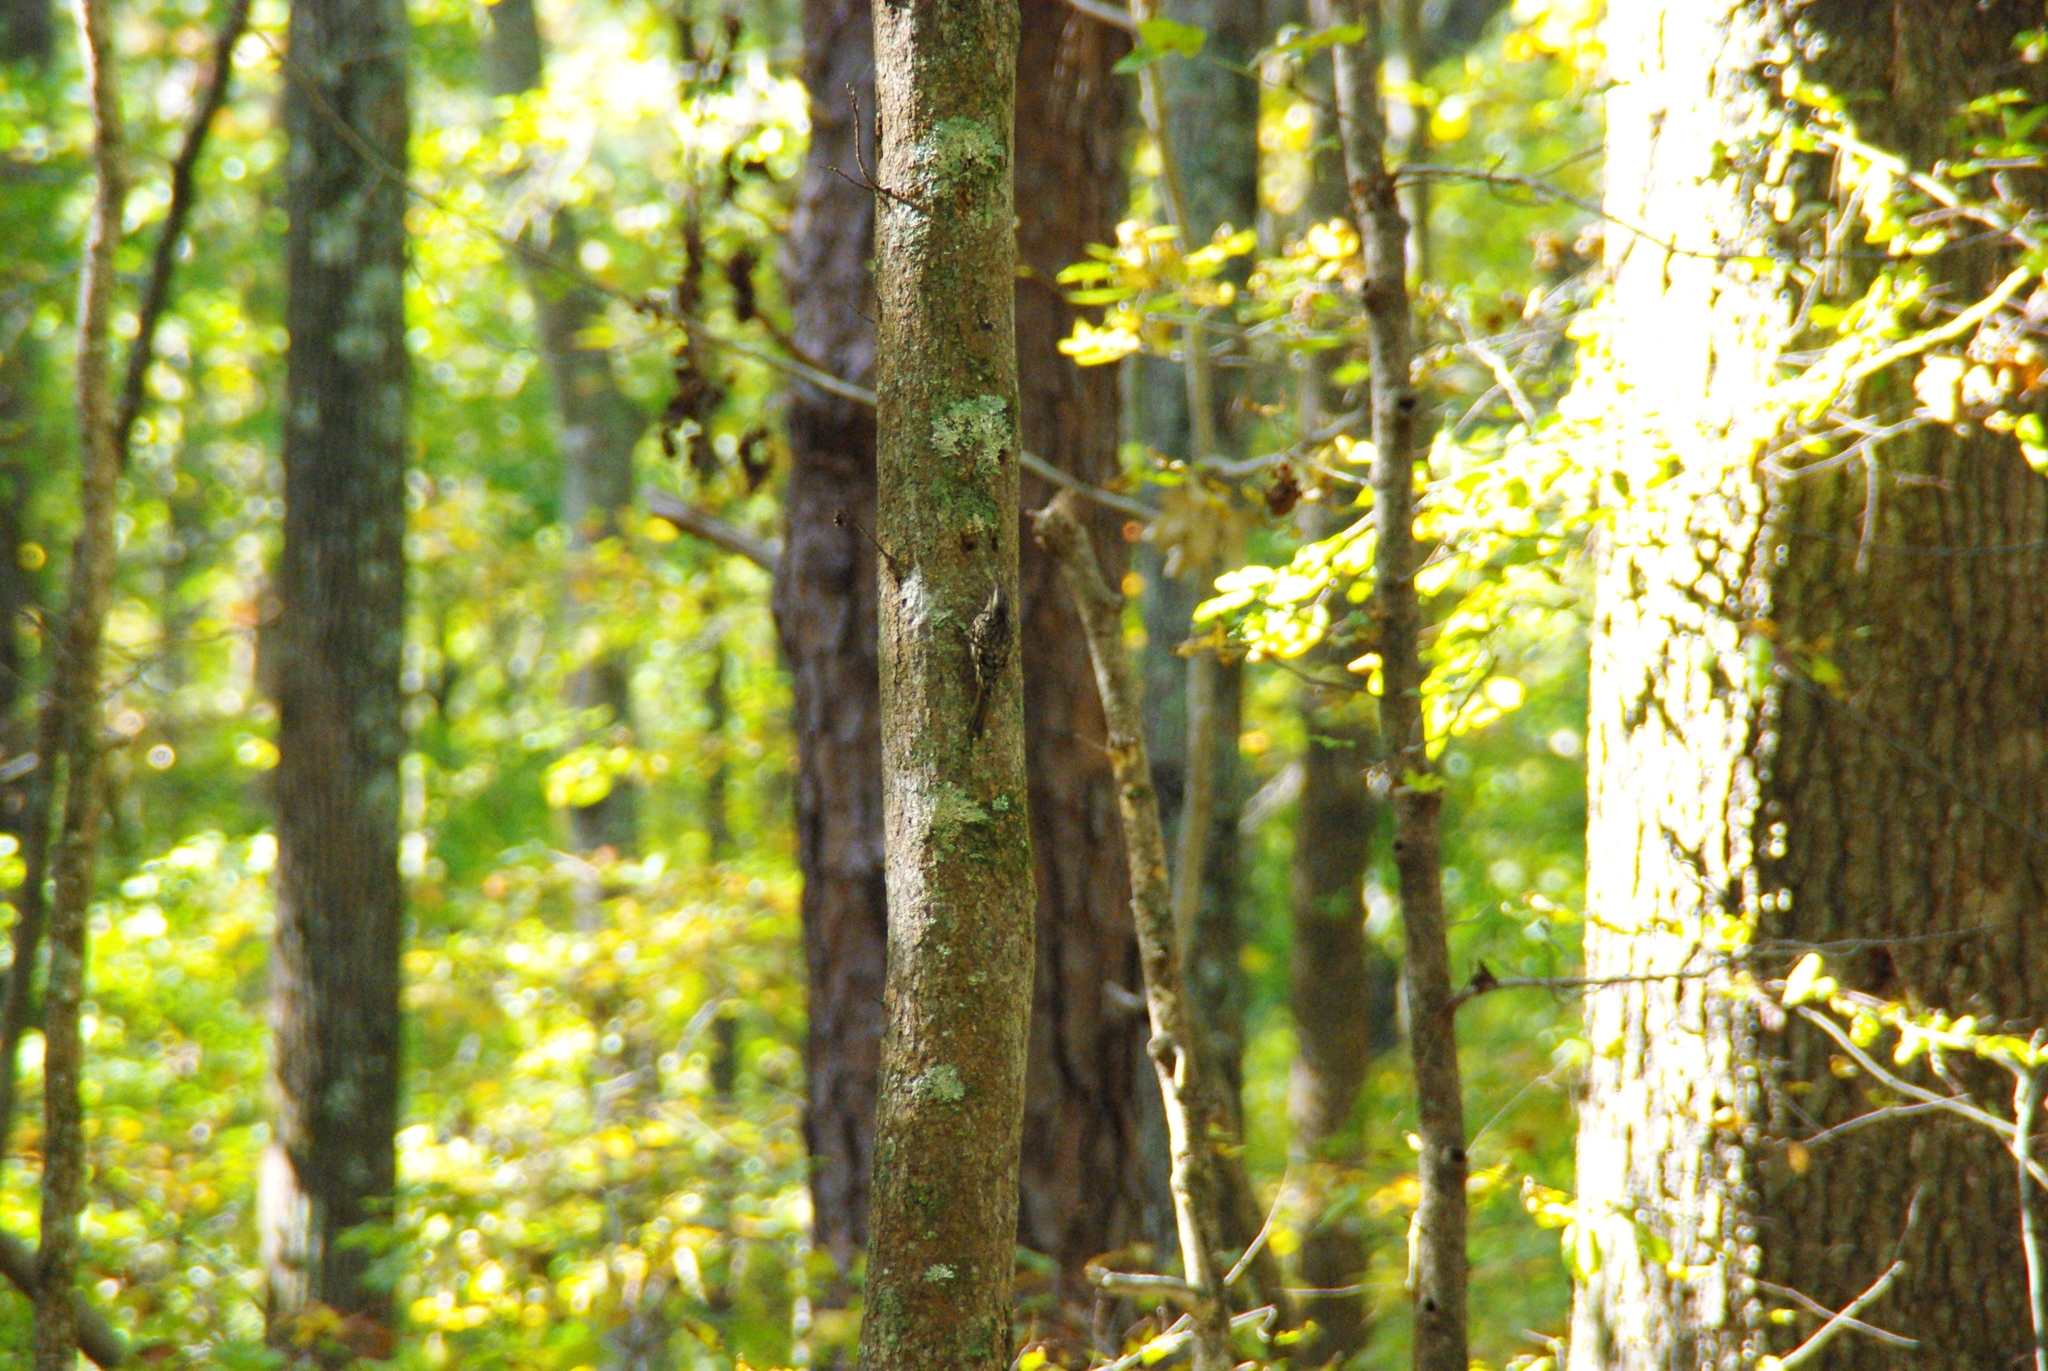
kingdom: Animalia
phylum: Chordata
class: Aves
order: Passeriformes
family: Certhiidae
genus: Certhia
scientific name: Certhia americana
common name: Brown creeper
